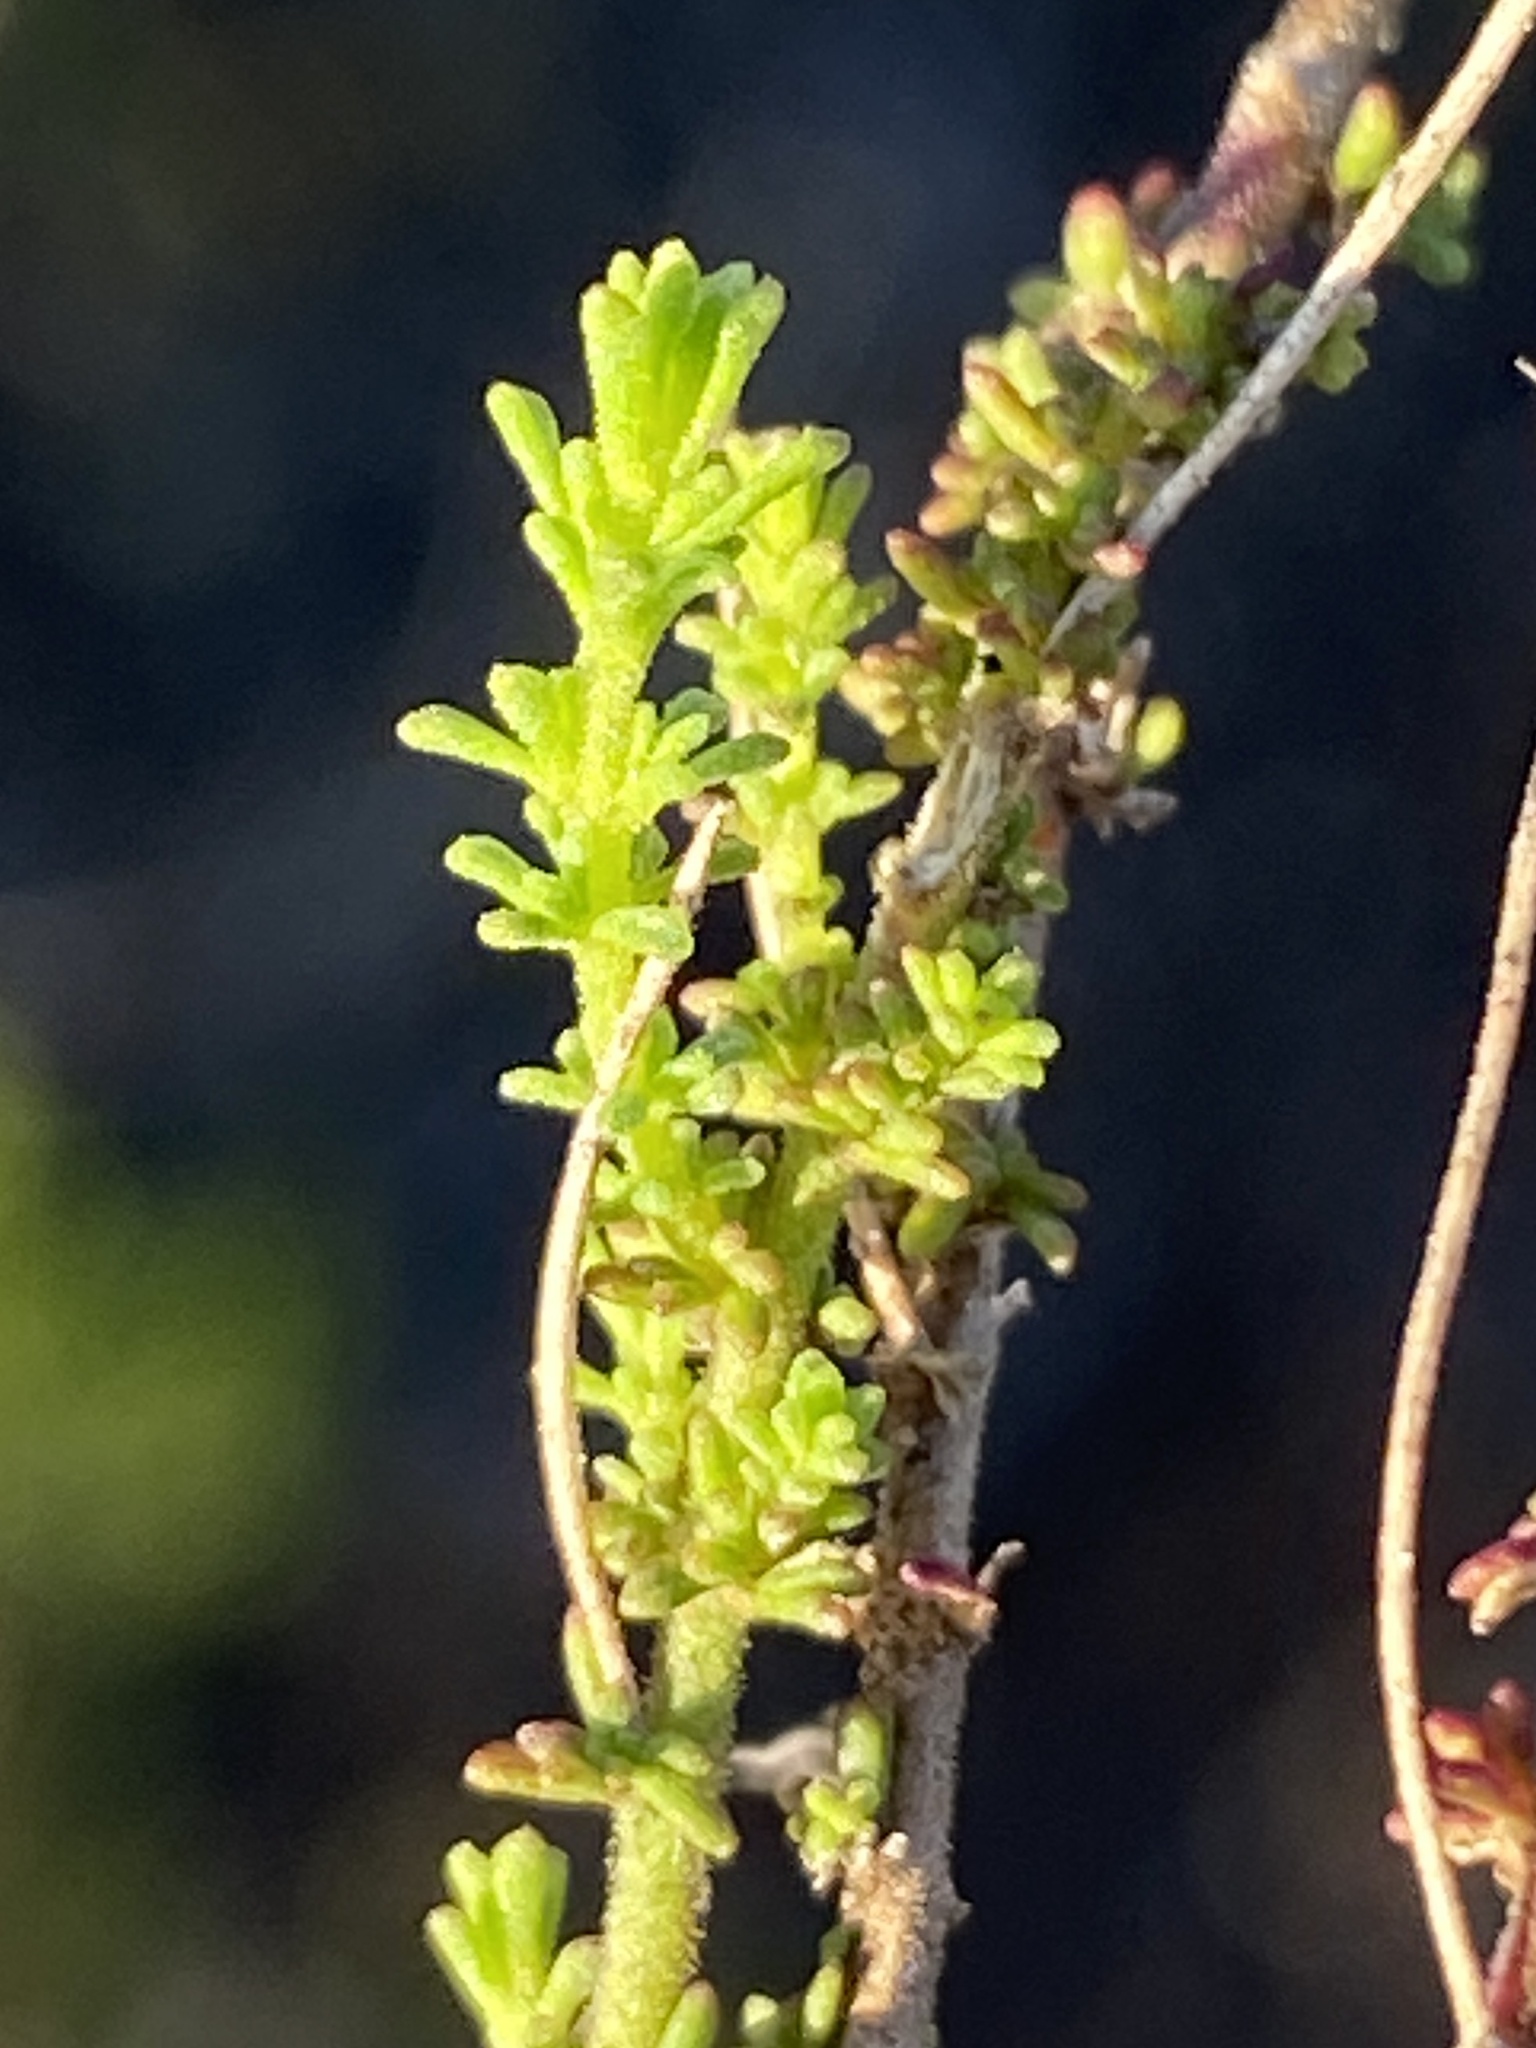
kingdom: Plantae
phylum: Tracheophyta
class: Magnoliopsida
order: Lamiales
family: Scrophulariaceae
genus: Jamesbrittenia
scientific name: Jamesbrittenia albomarginata
